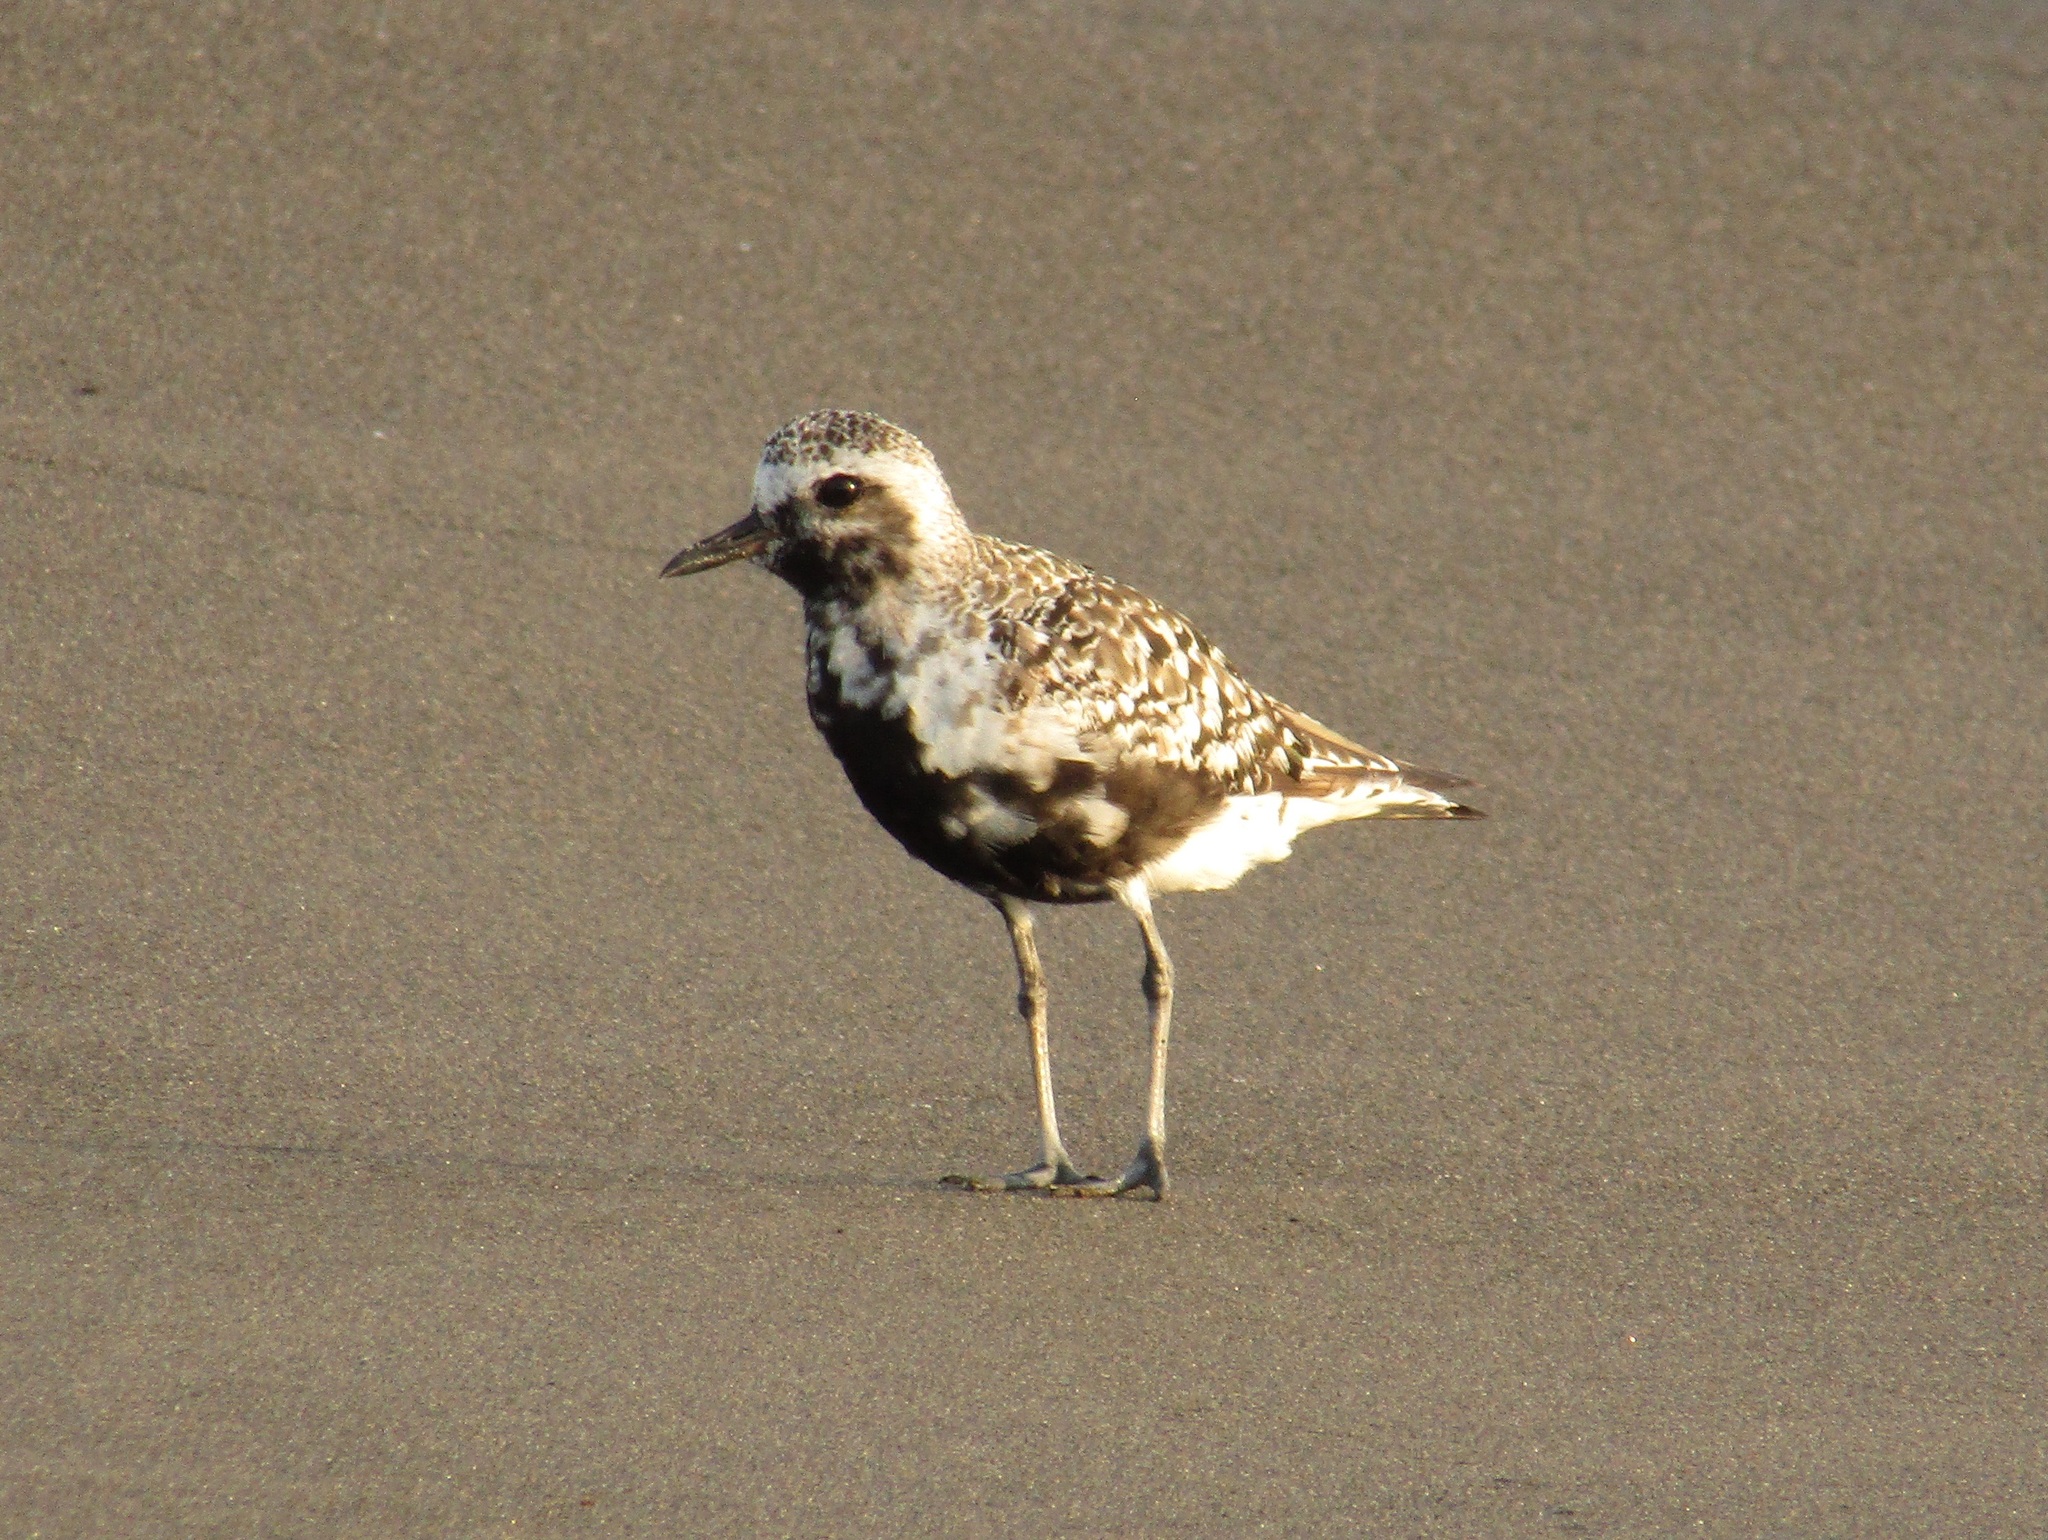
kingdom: Animalia
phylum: Chordata
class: Aves
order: Charadriiformes
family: Charadriidae
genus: Pluvialis
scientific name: Pluvialis squatarola
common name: Grey plover
